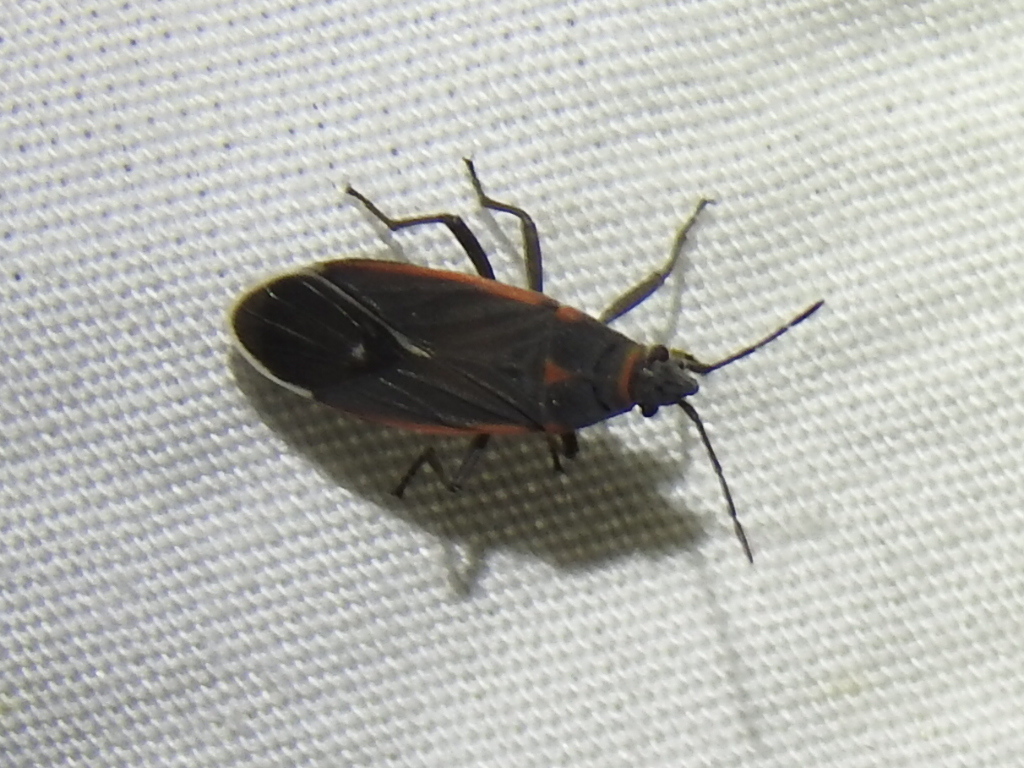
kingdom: Animalia
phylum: Arthropoda
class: Insecta
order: Hemiptera
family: Lygaeidae
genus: Melacoryphus
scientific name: Melacoryphus lateralis
